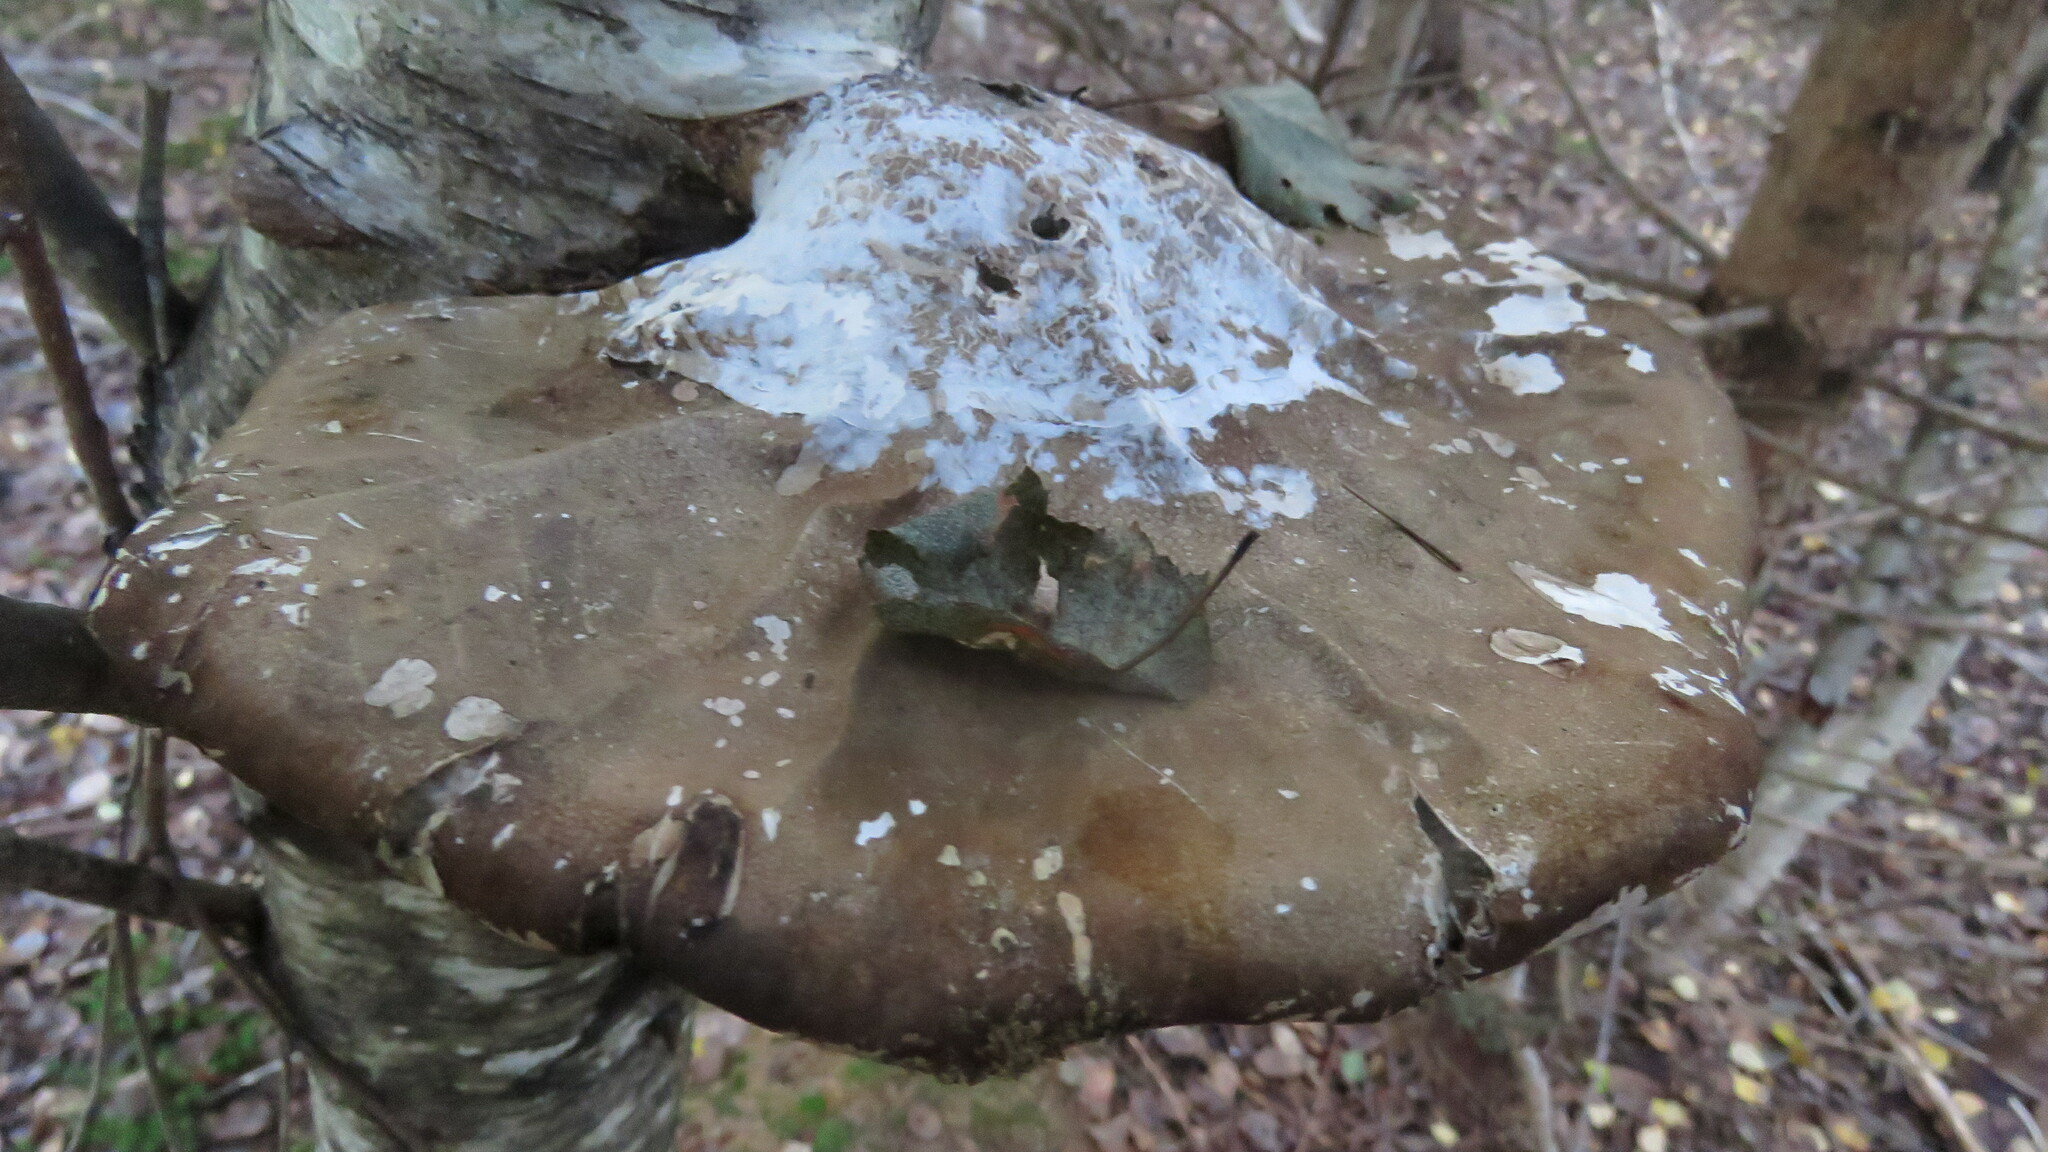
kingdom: Fungi
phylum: Basidiomycota
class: Agaricomycetes
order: Polyporales
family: Fomitopsidaceae
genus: Fomitopsis
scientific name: Fomitopsis betulina
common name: Birch polypore
